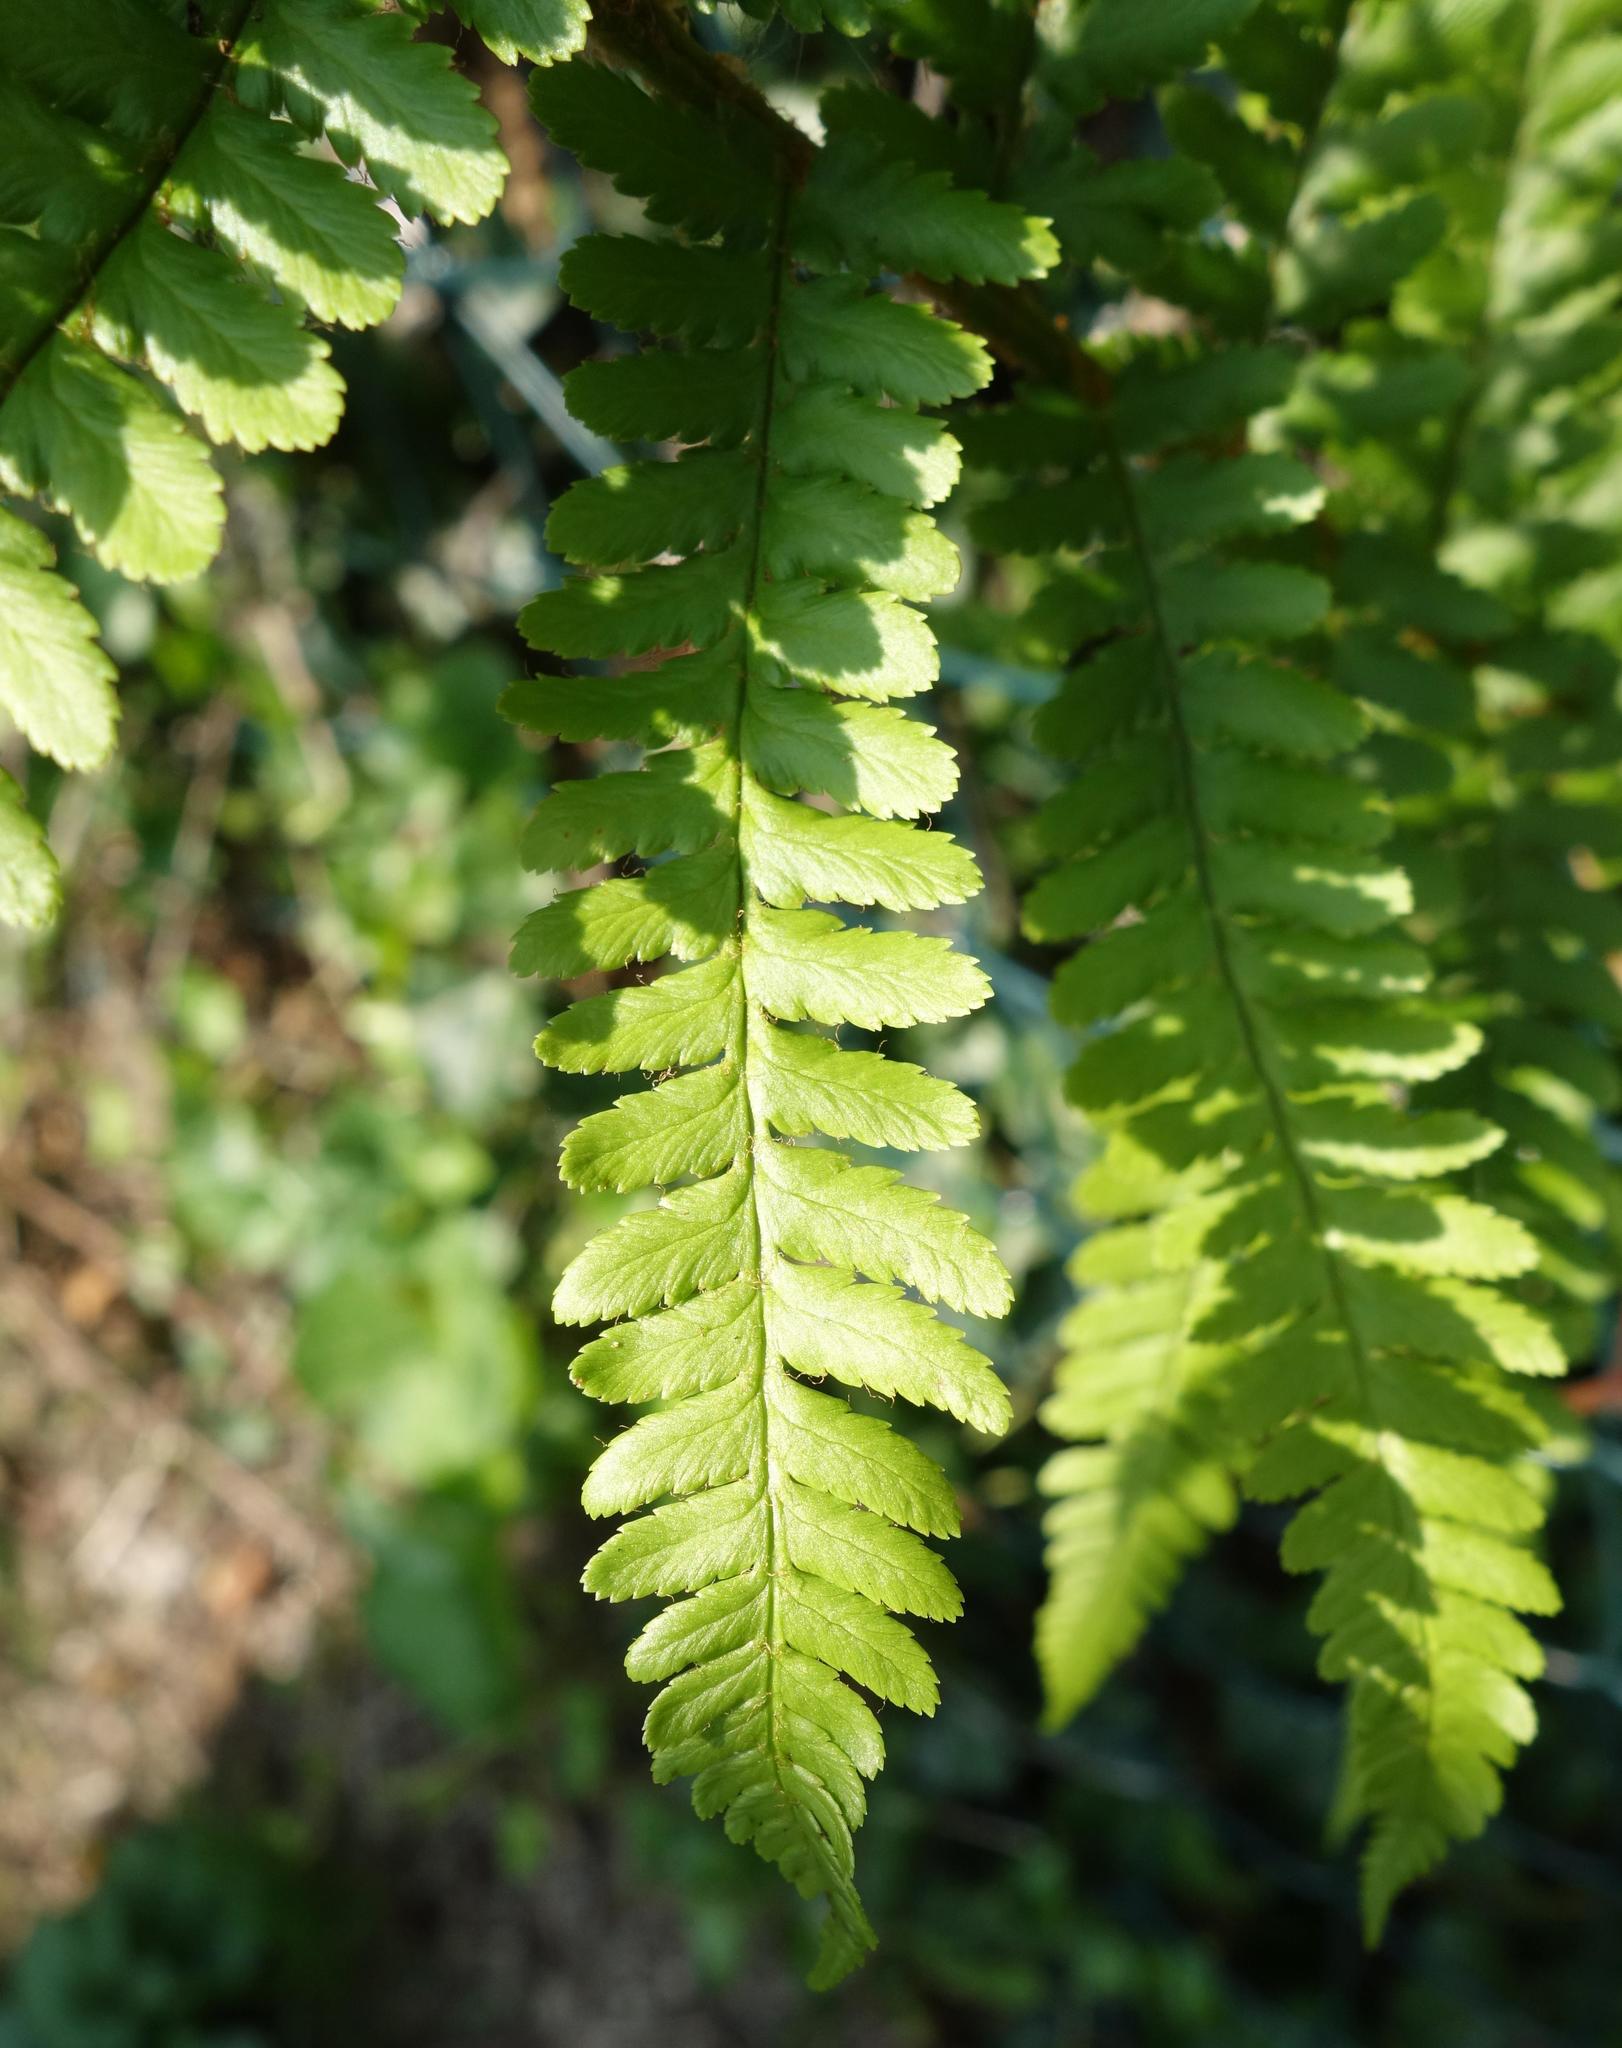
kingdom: Plantae
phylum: Tracheophyta
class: Polypodiopsida
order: Polypodiales
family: Dryopteridaceae
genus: Dryopteris
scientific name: Dryopteris filix-mas
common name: Male fern
